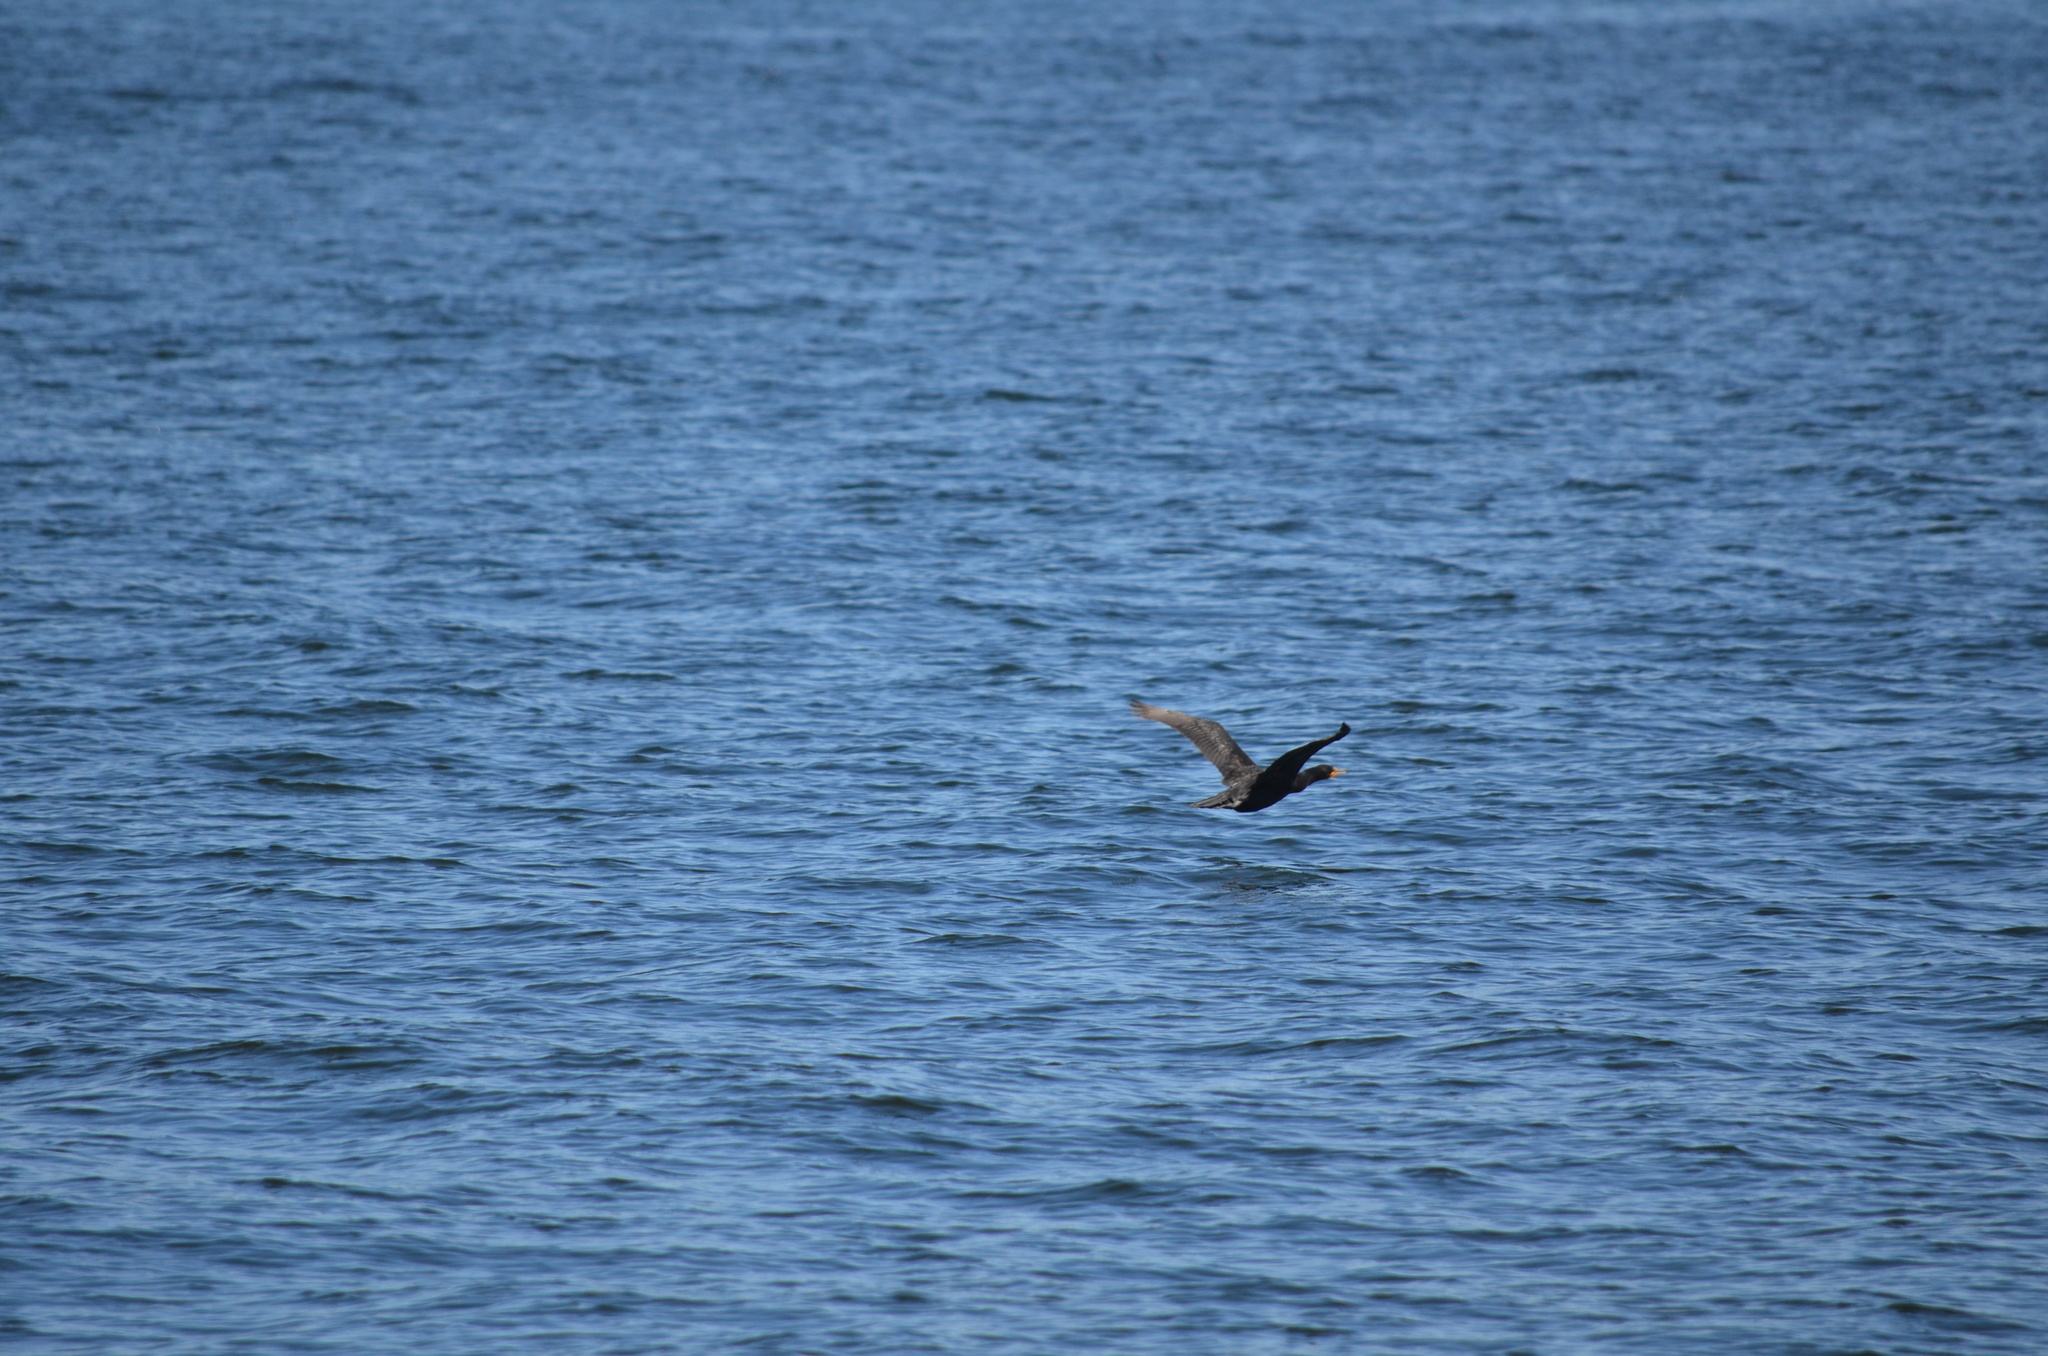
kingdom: Animalia
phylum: Chordata
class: Aves
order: Suliformes
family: Phalacrocoracidae
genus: Phalacrocorax
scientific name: Phalacrocorax auritus
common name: Double-crested cormorant
